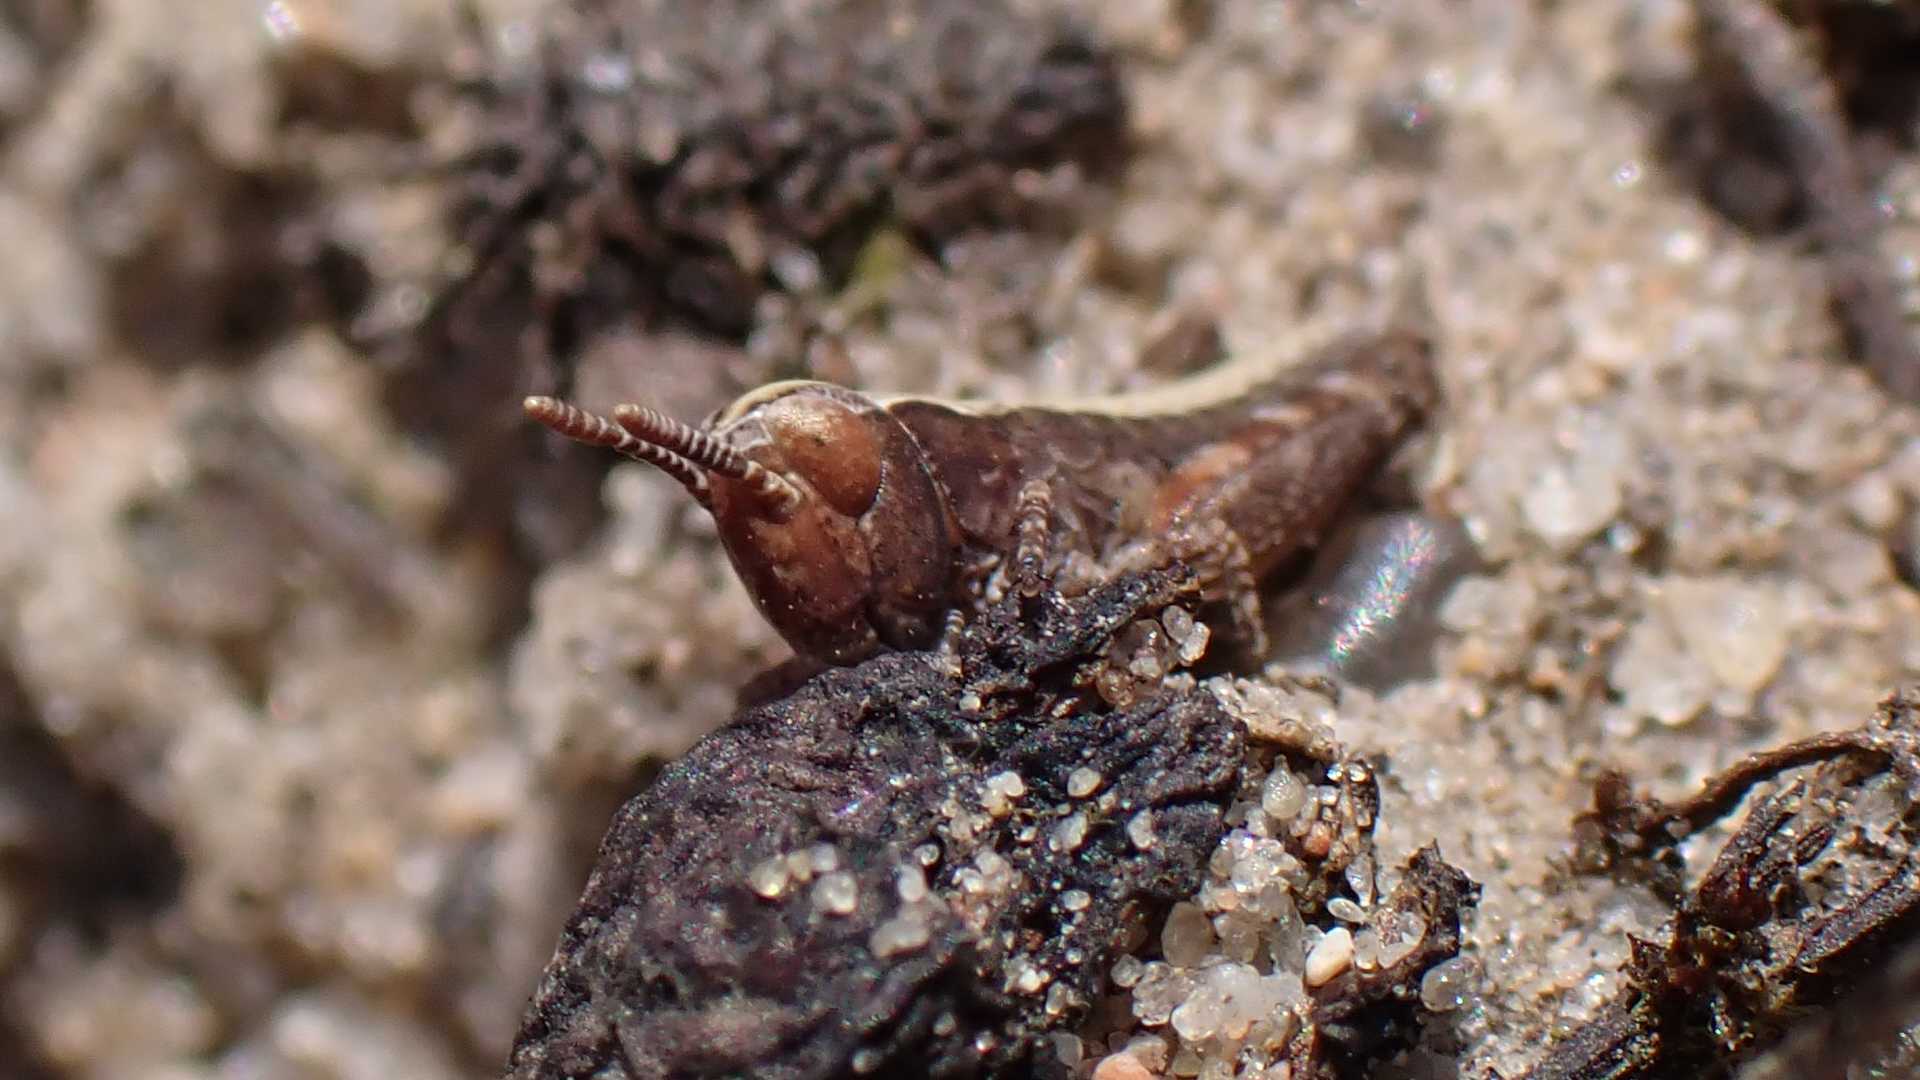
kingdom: Animalia
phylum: Arthropoda
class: Insecta
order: Orthoptera
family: Acrididae
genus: Myrmeleotettix
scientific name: Myrmeleotettix maculatus
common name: Mottled grasshopper
